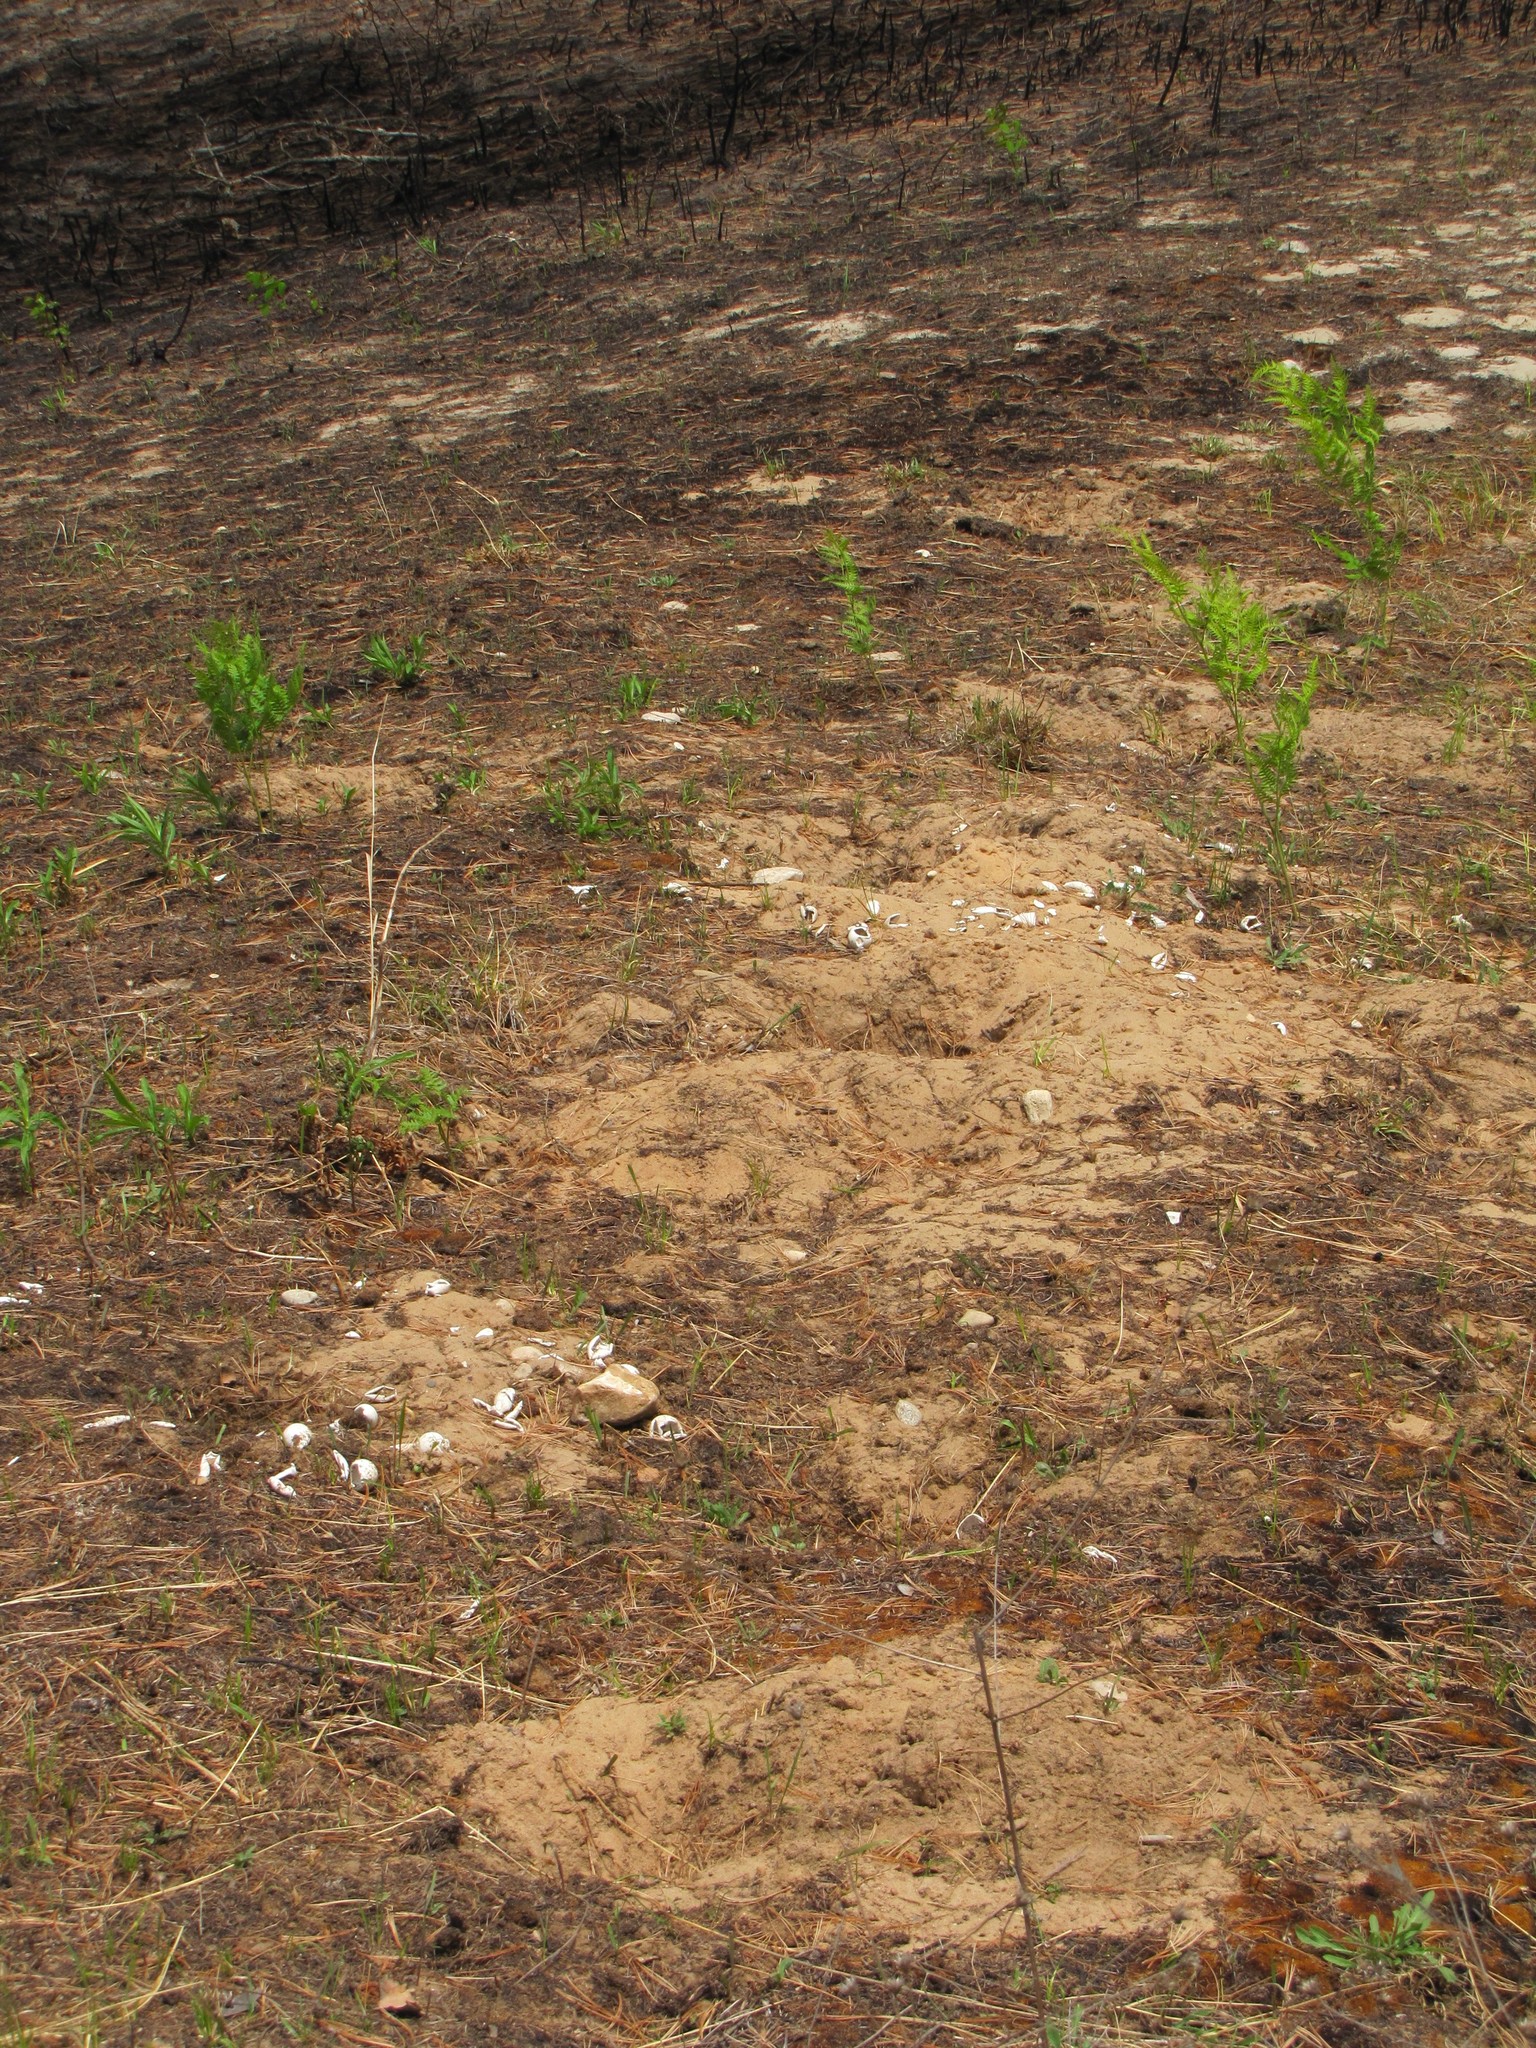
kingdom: Animalia
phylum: Chordata
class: Testudines
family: Chelydridae
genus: Chelydra
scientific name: Chelydra serpentina
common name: Common snapping turtle
